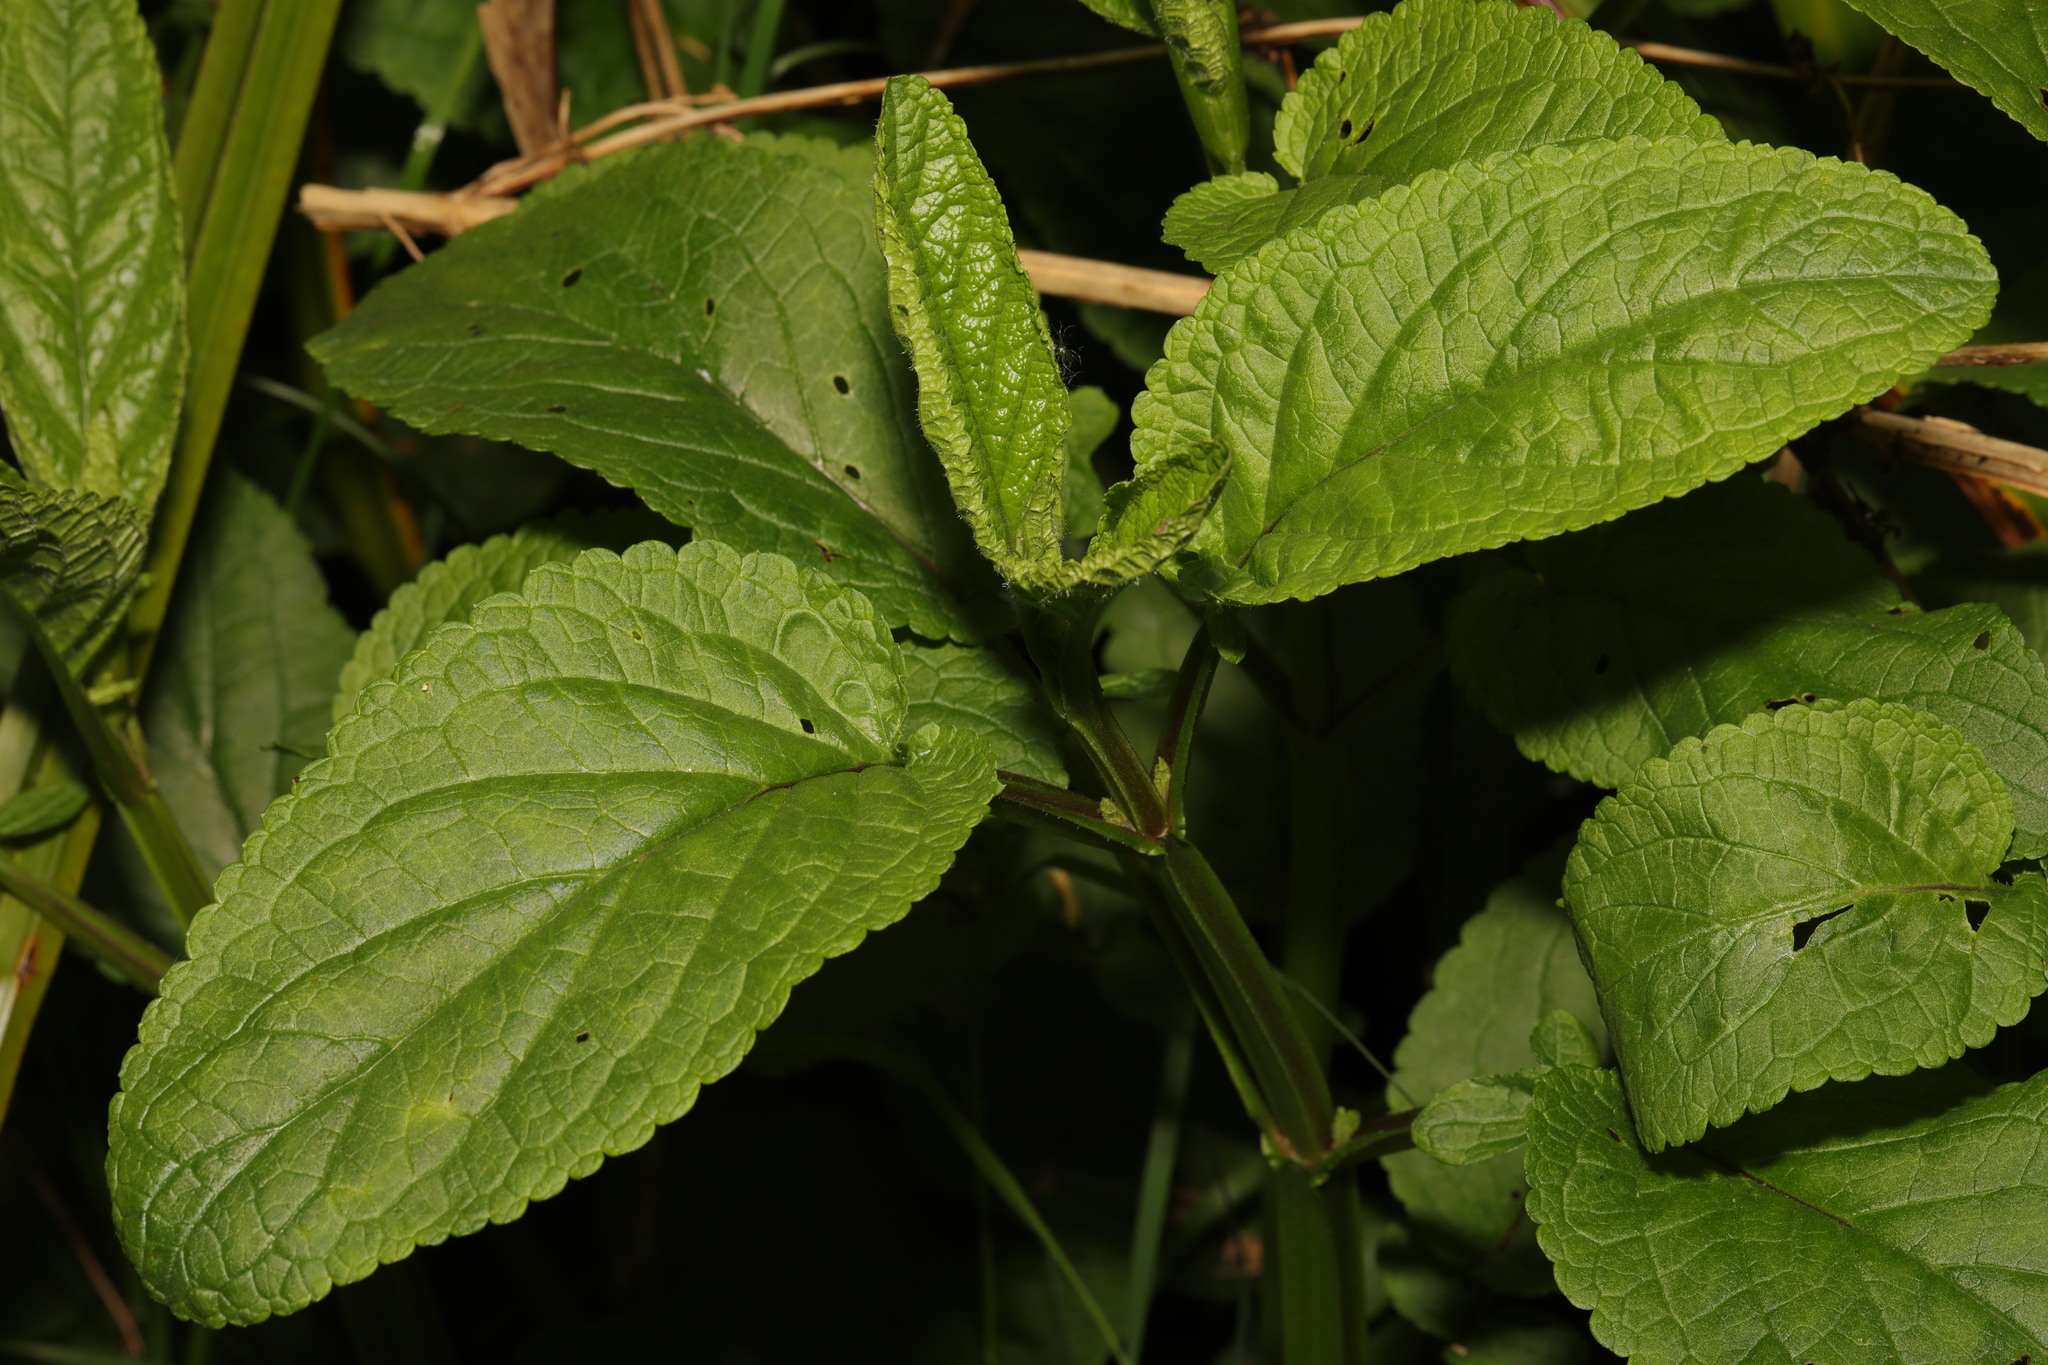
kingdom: Plantae
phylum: Tracheophyta
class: Magnoliopsida
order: Lamiales
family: Scrophulariaceae
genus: Scrophularia
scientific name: Scrophularia auriculata
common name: Water betony
